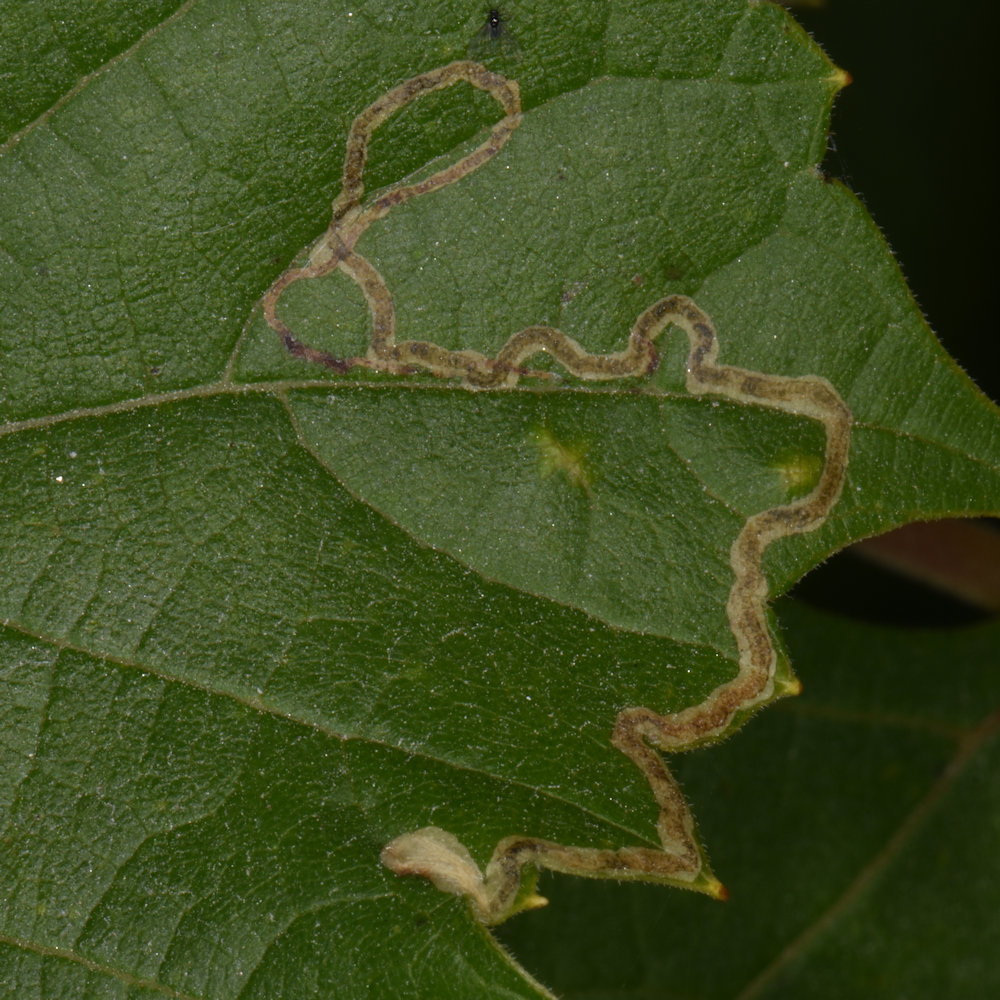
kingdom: Animalia
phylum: Arthropoda
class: Insecta
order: Lepidoptera
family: Gracillariidae
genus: Phyllocnistis
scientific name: Phyllocnistis vitifoliella
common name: Grape leaf-miner moth
